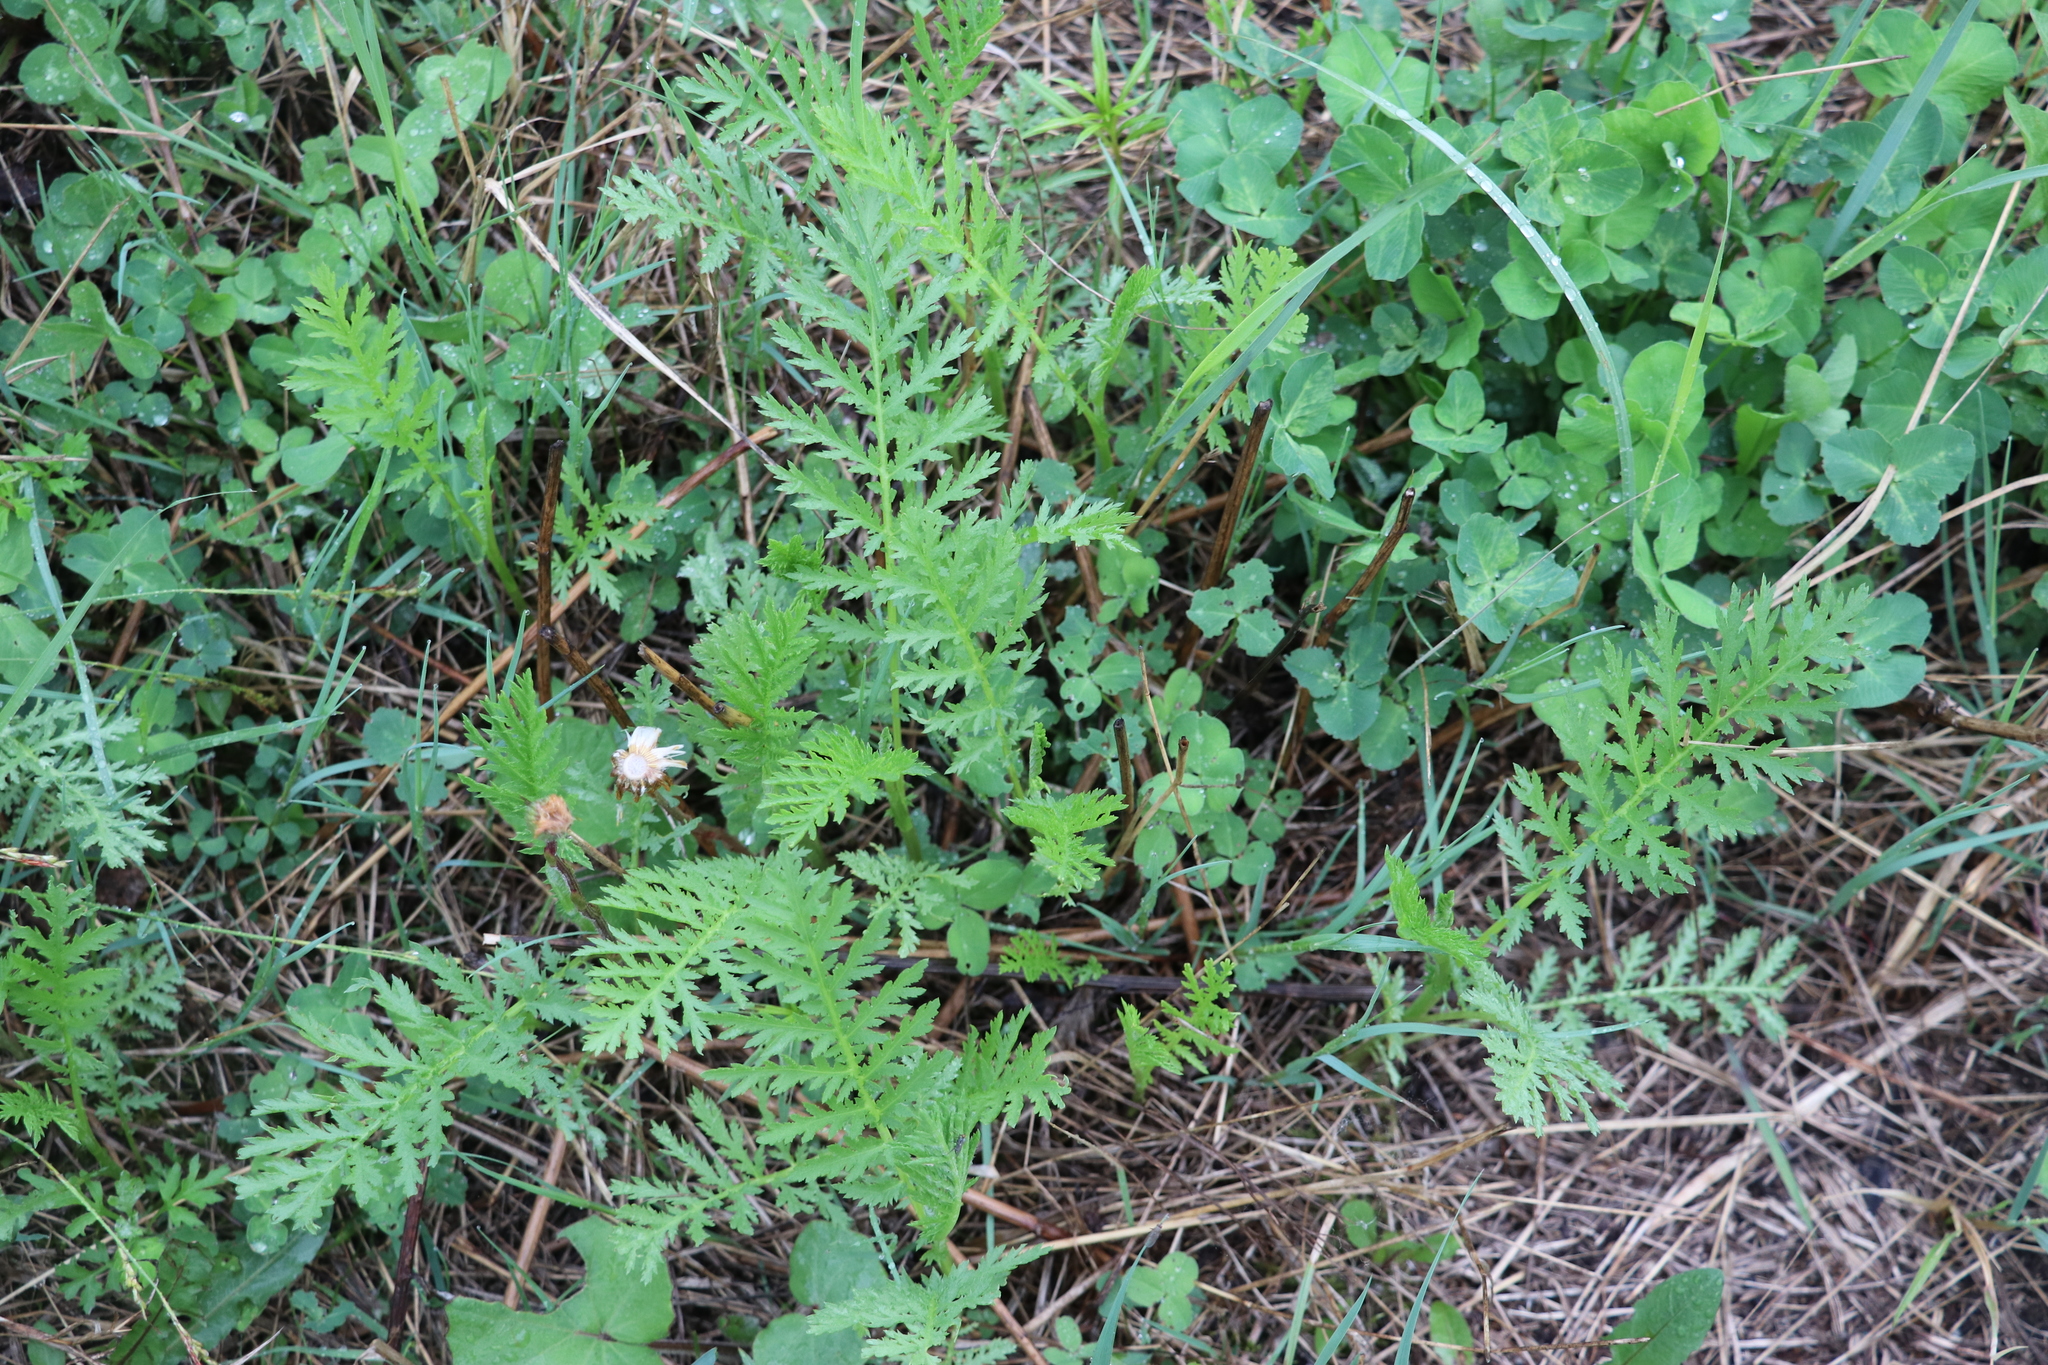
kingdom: Plantae
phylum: Tracheophyta
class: Magnoliopsida
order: Asterales
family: Asteraceae
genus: Tanacetum
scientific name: Tanacetum vulgare
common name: Common tansy
